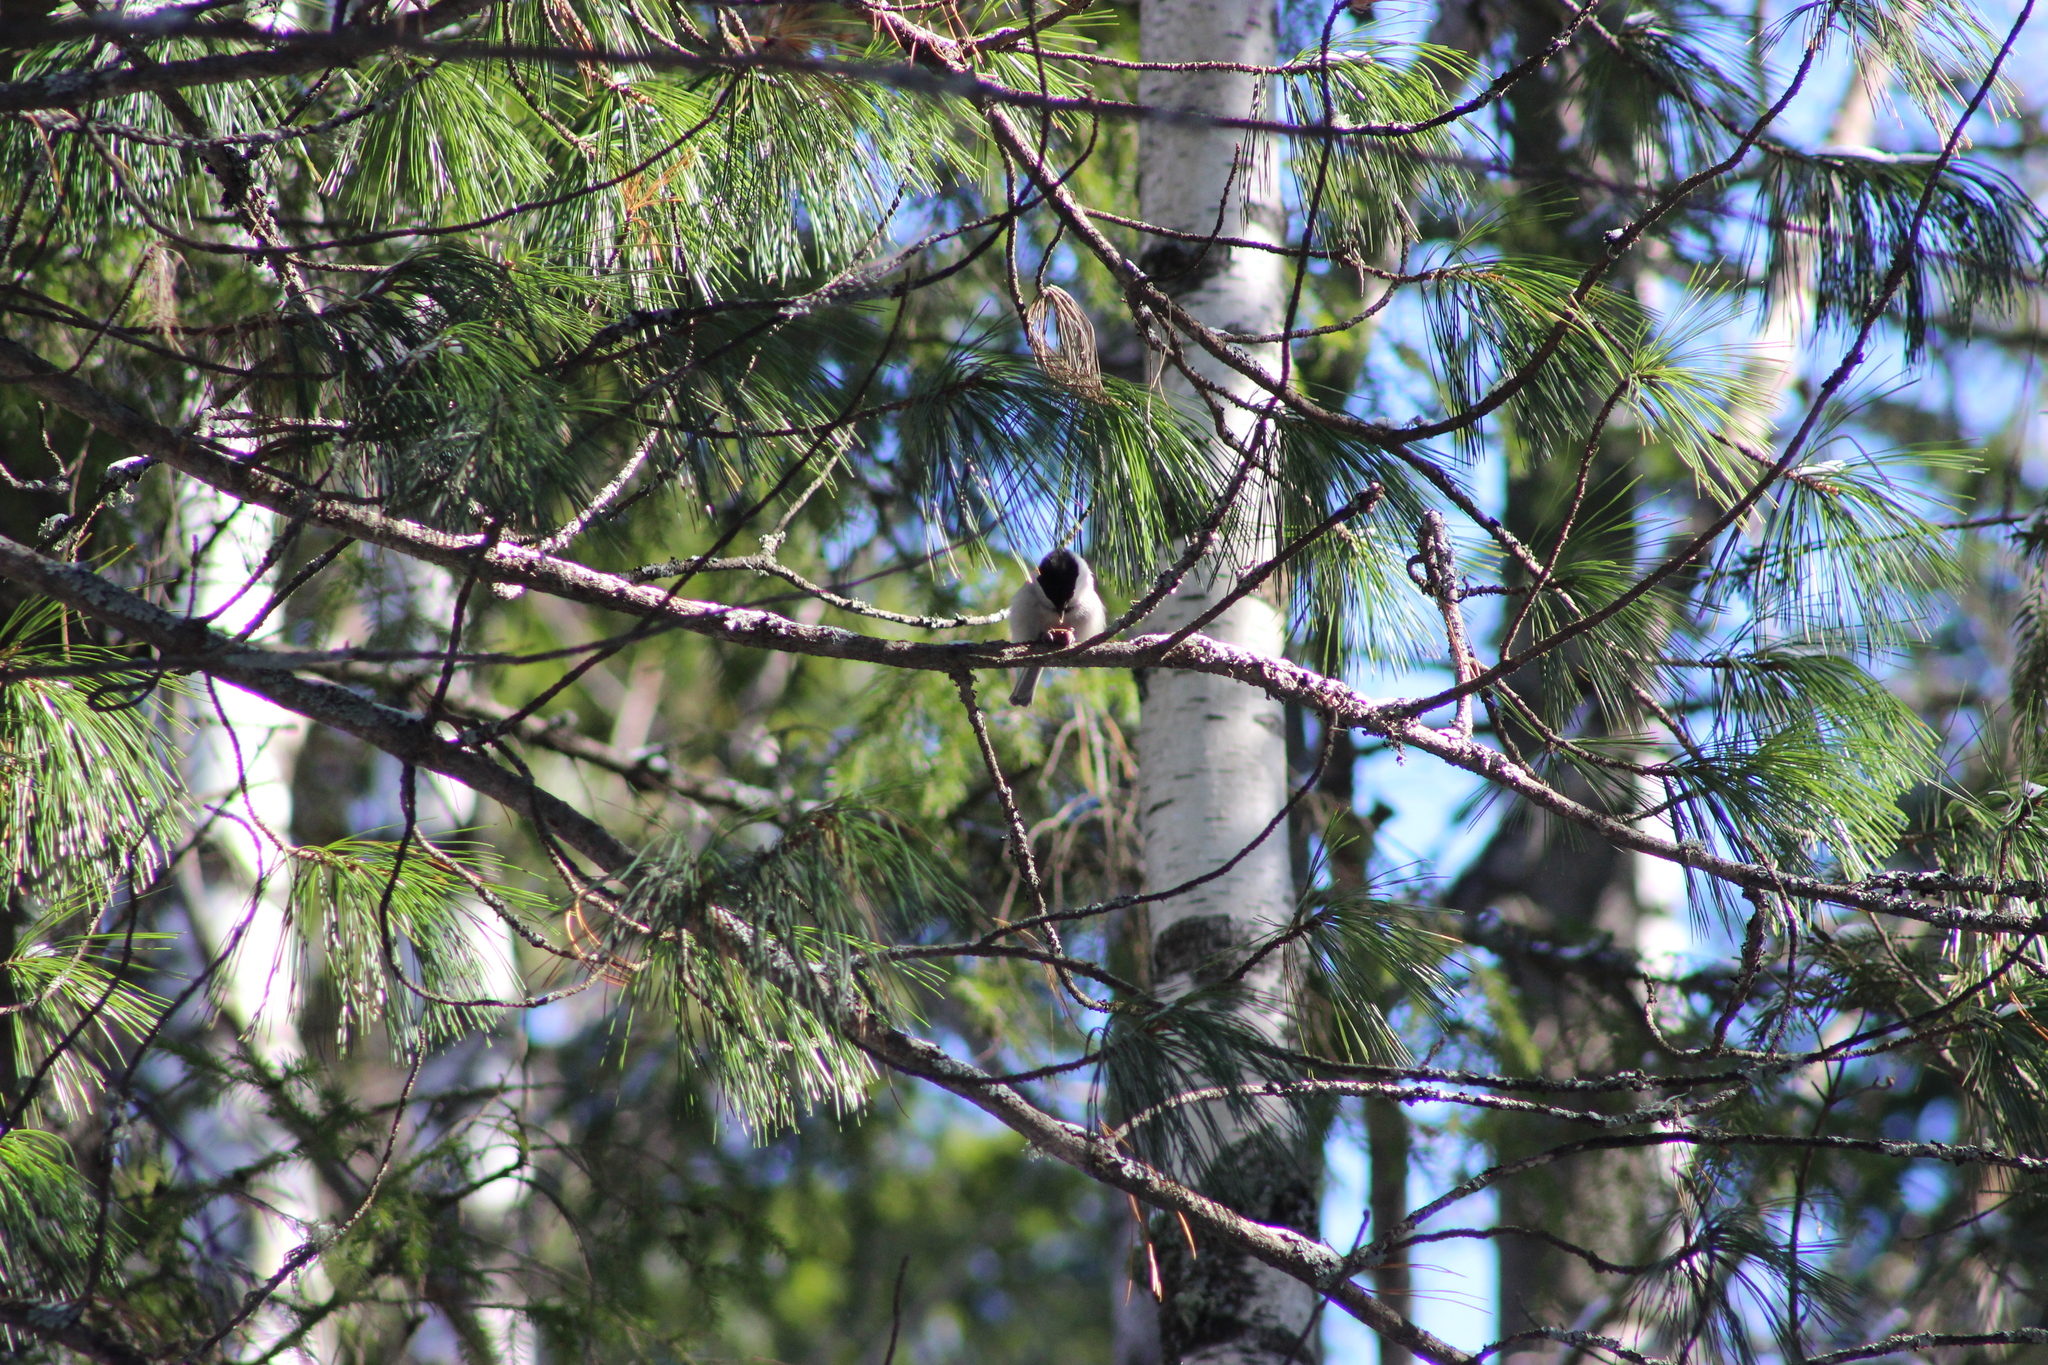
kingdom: Animalia
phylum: Chordata
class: Aves
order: Passeriformes
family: Paridae
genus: Poecile
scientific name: Poecile montanus
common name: Willow tit
